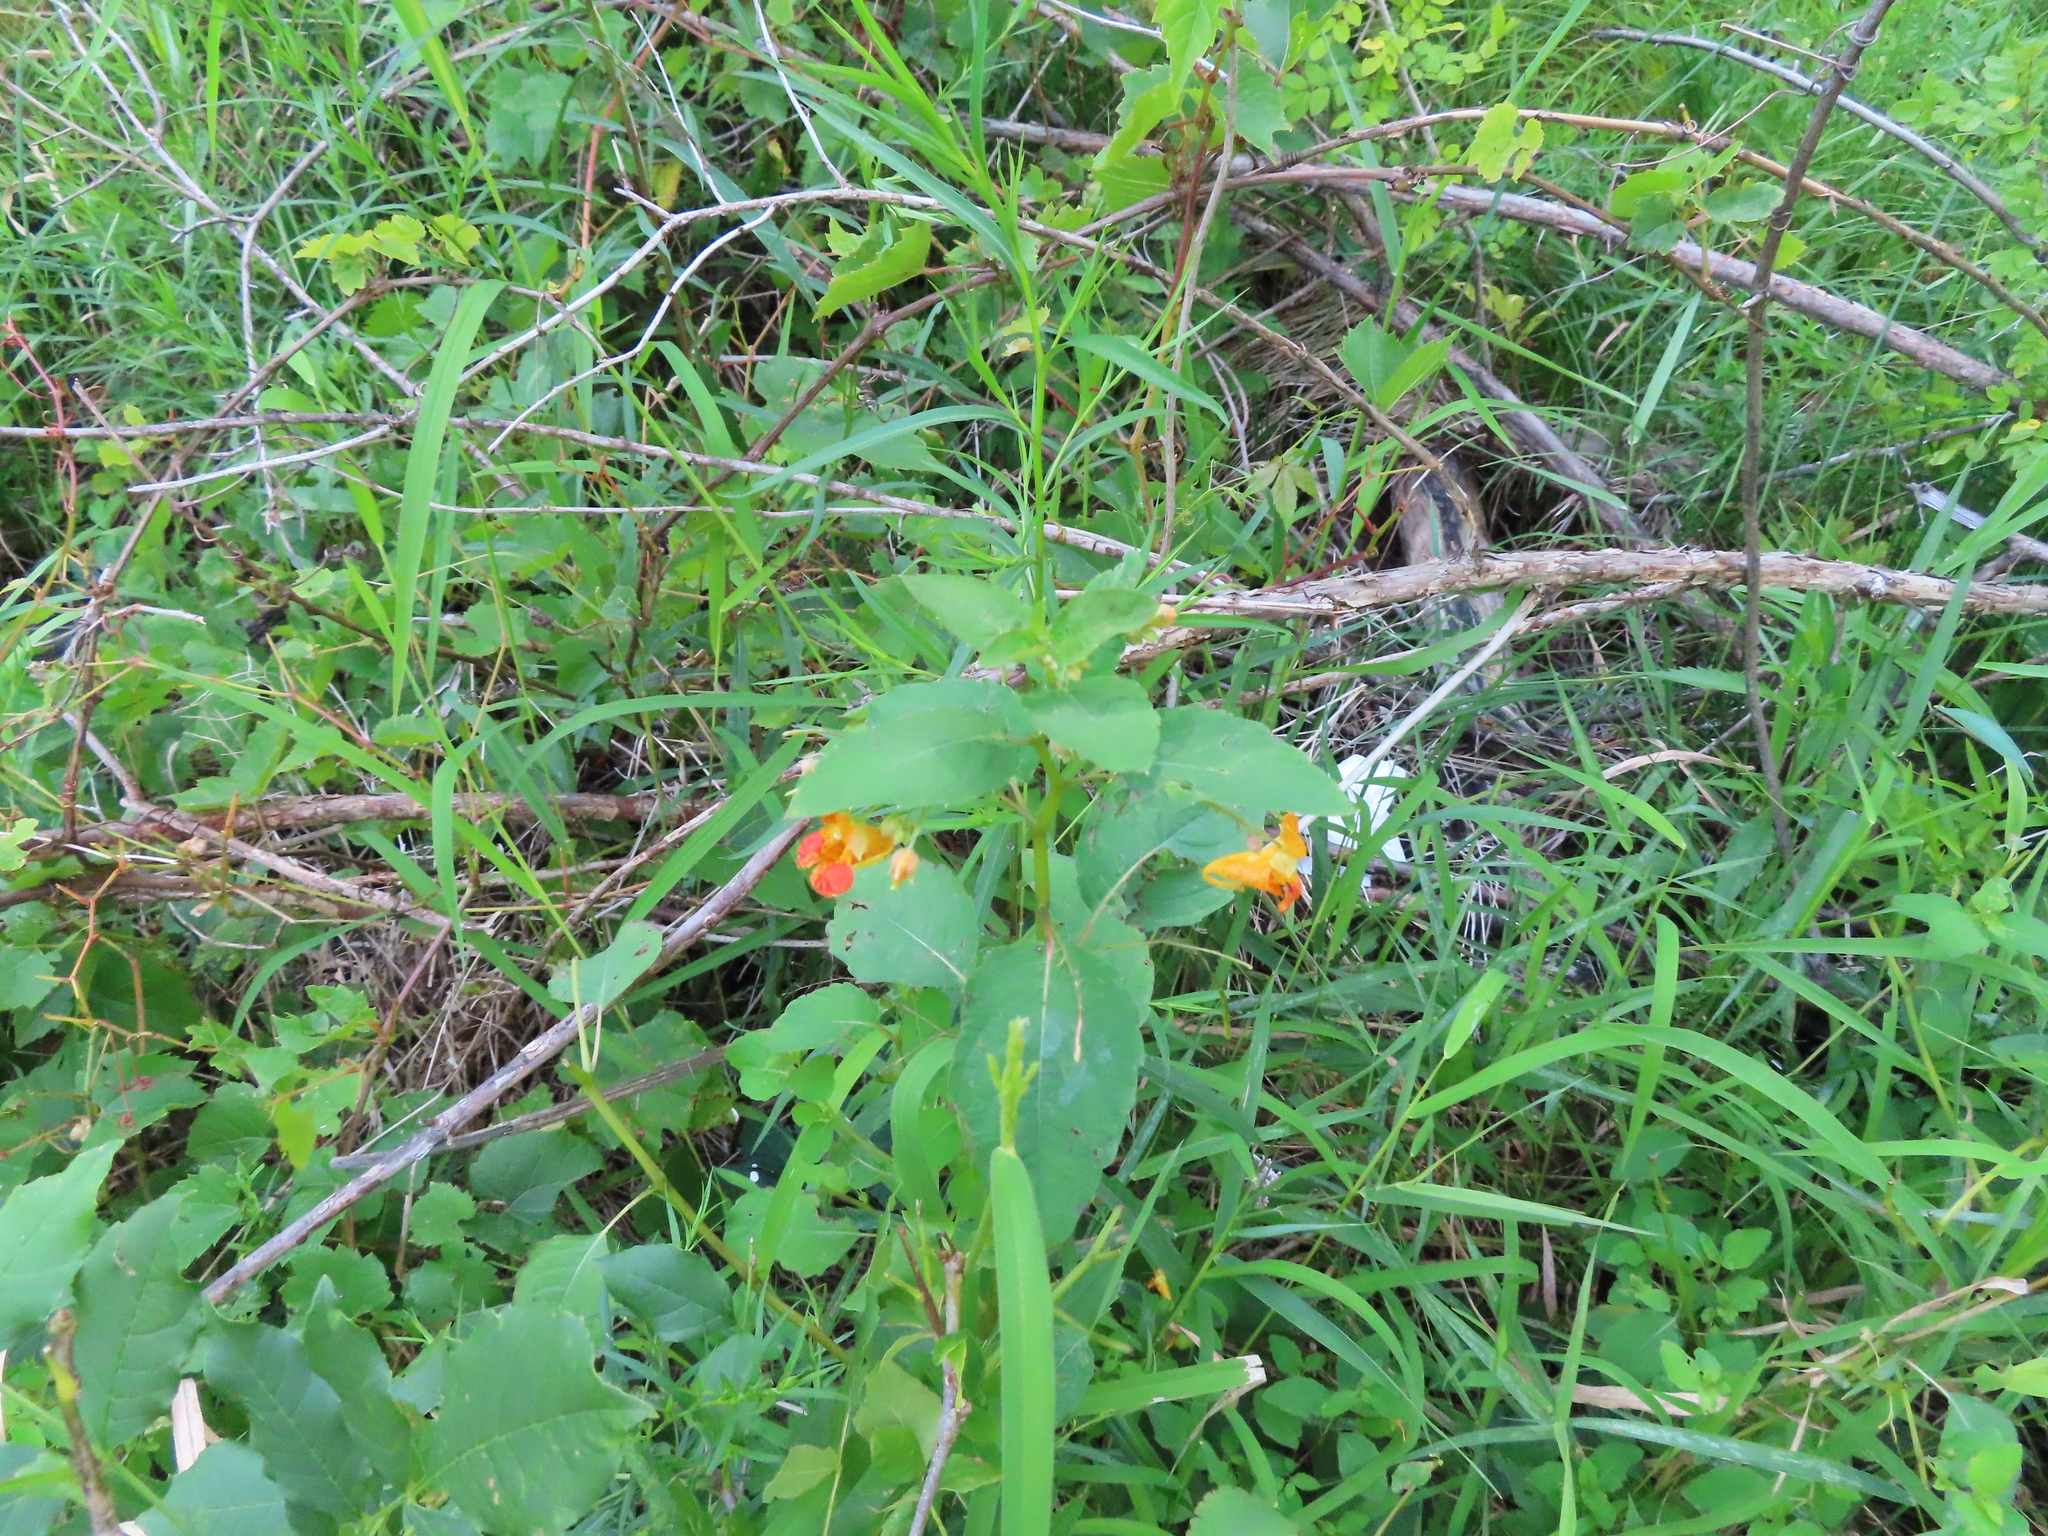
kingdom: Plantae
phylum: Tracheophyta
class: Magnoliopsida
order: Ericales
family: Balsaminaceae
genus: Impatiens
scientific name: Impatiens capensis
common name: Orange balsam
